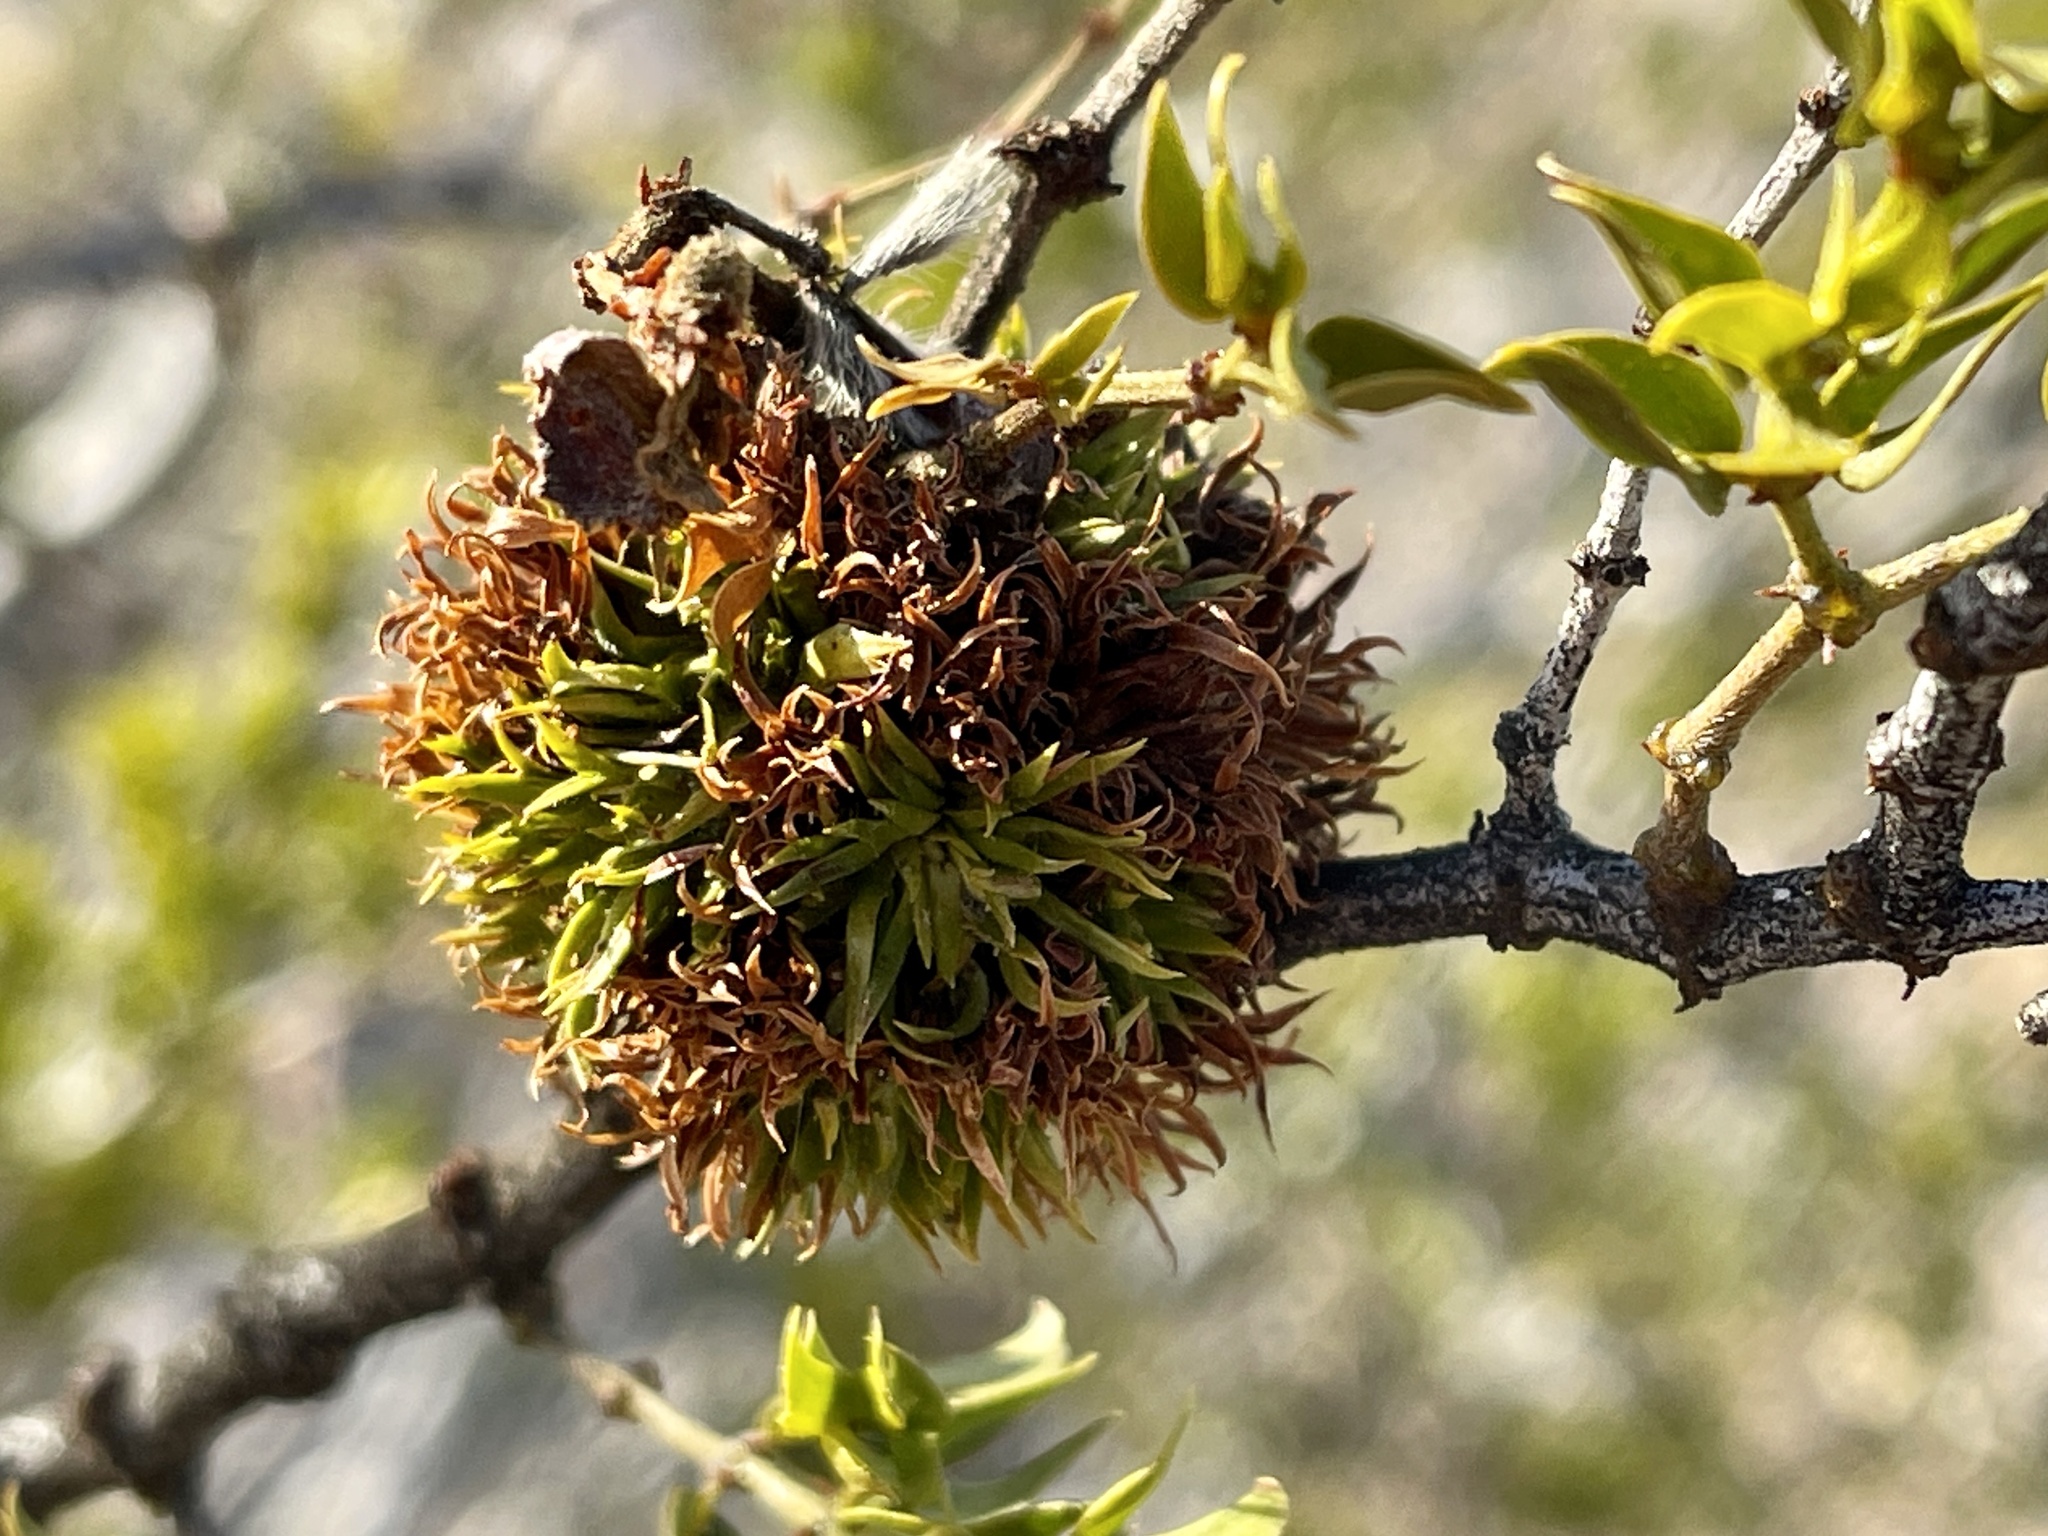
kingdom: Animalia
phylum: Arthropoda
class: Insecta
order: Diptera
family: Cecidomyiidae
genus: Asphondylia
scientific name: Asphondylia auripila
